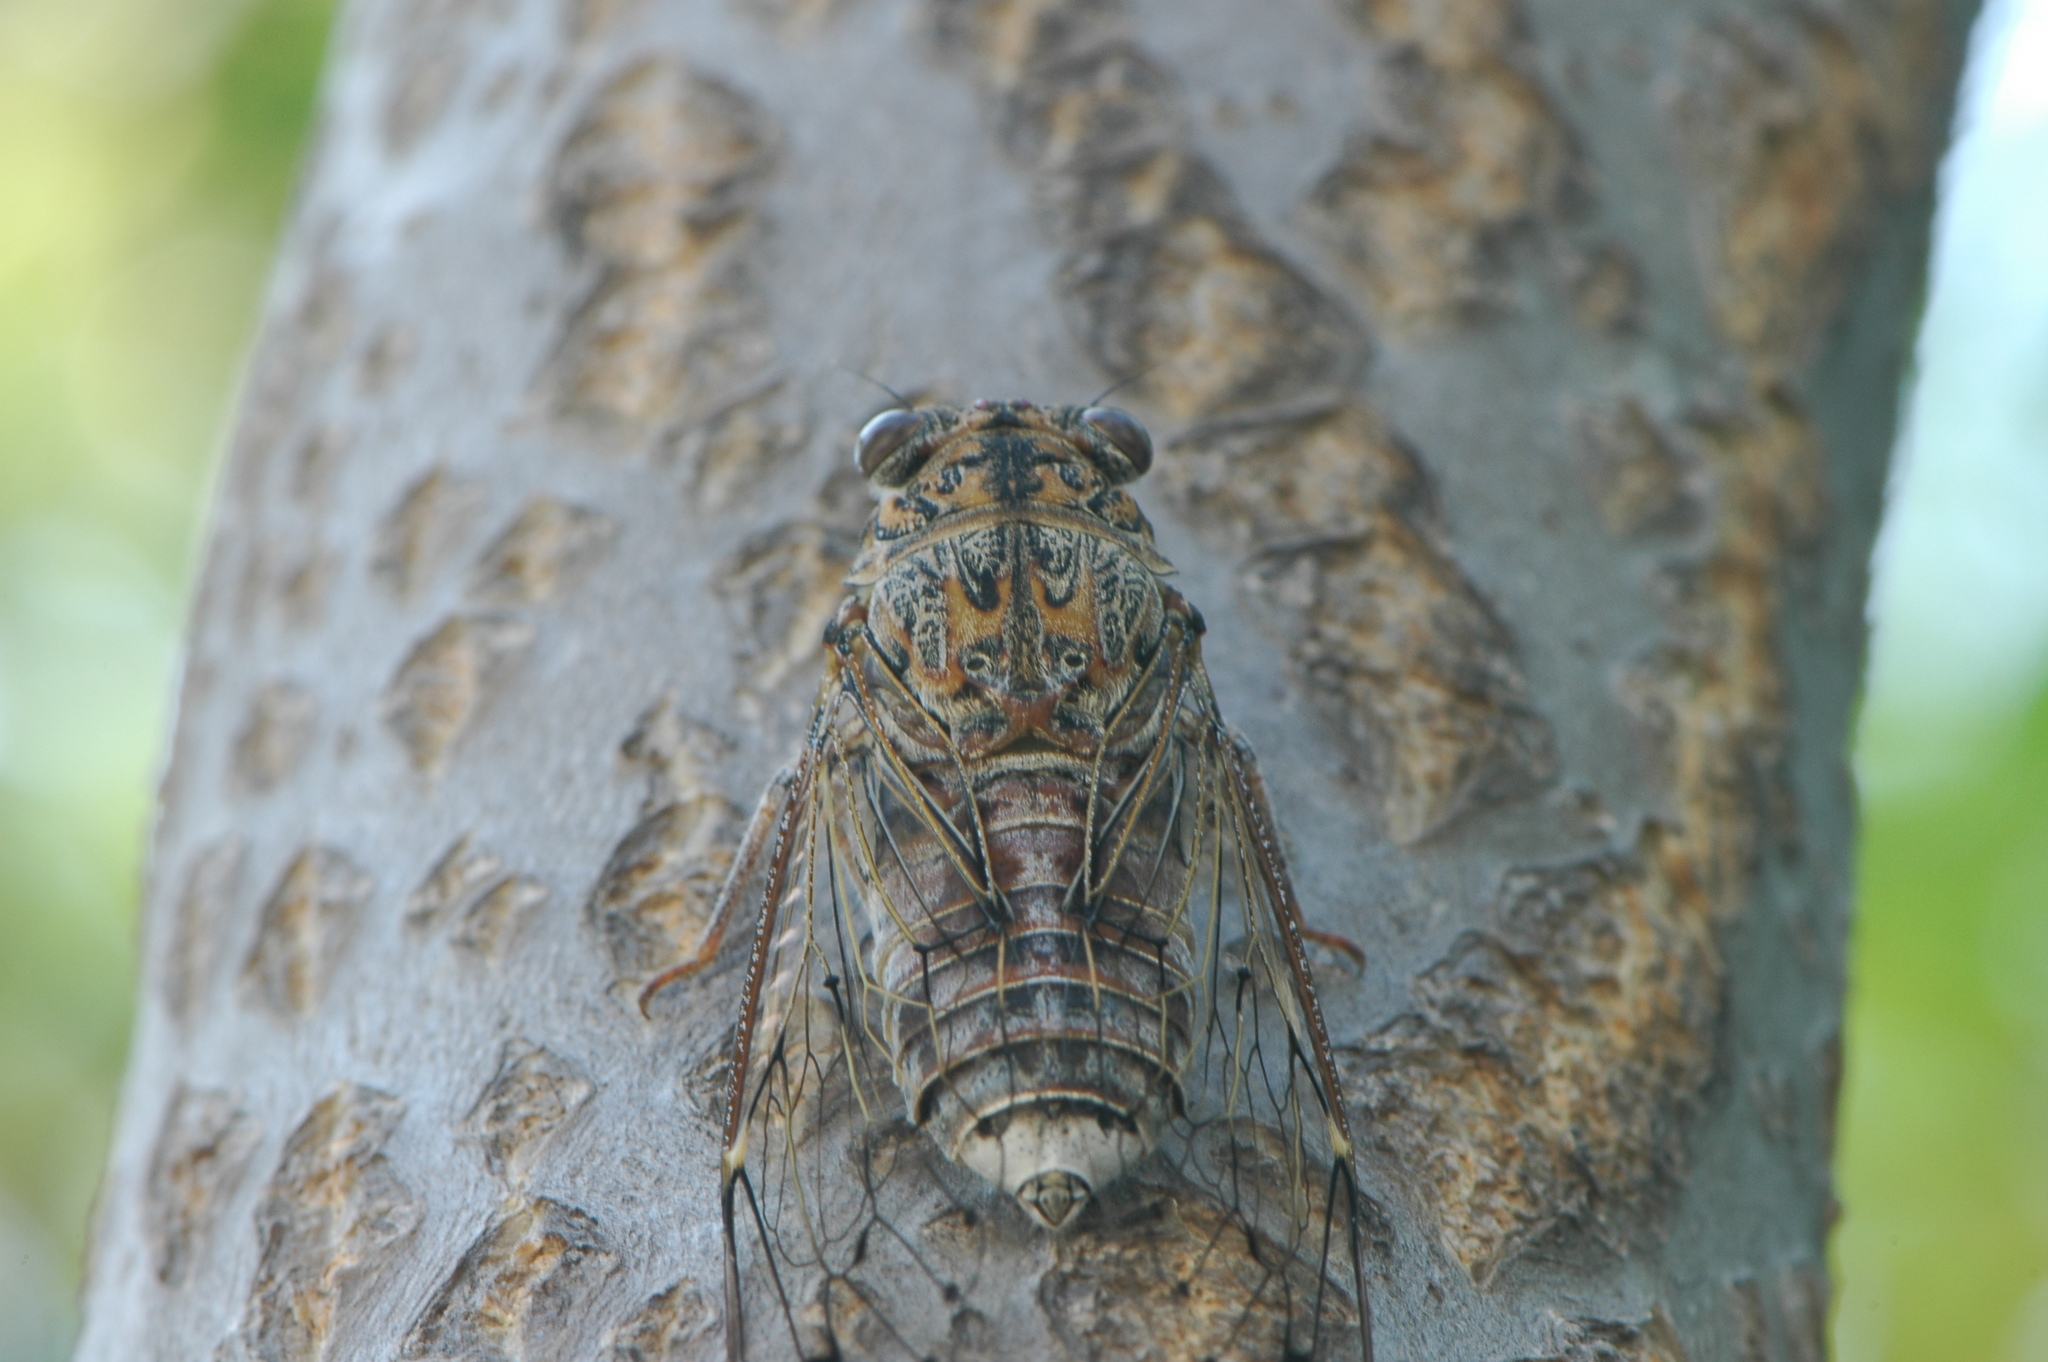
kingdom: Animalia
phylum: Arthropoda
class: Insecta
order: Hemiptera
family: Cicadidae
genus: Cicada
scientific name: Cicada barbara
